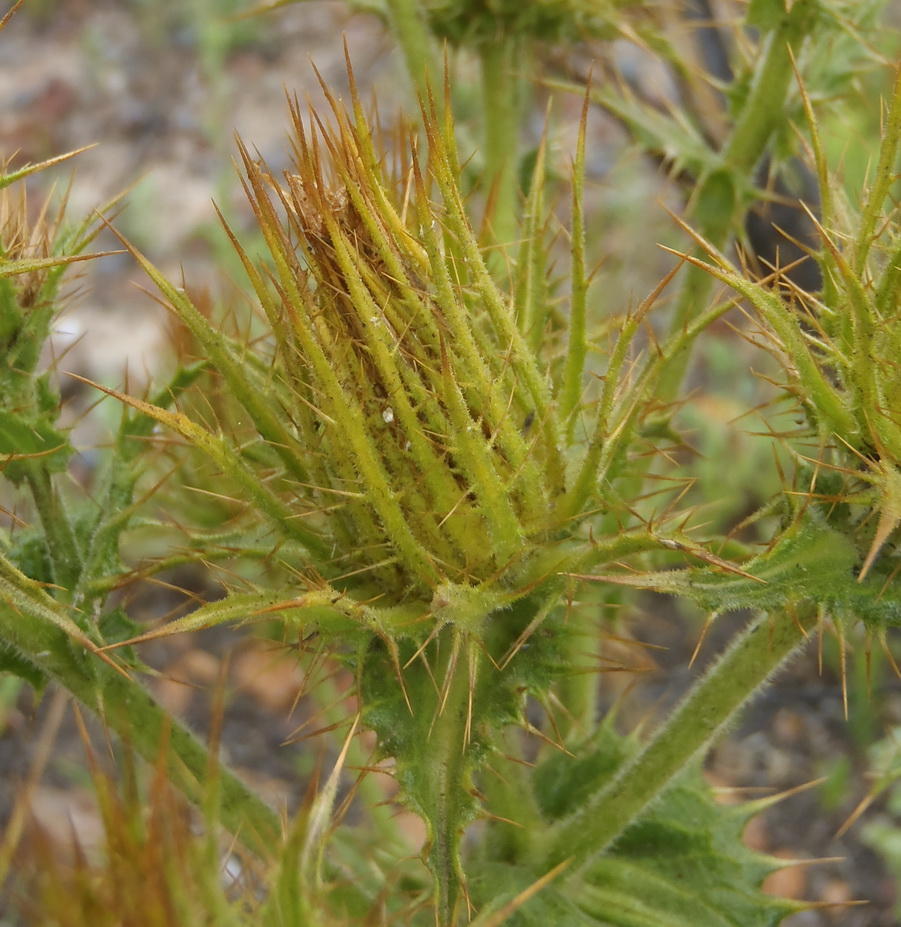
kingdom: Plantae
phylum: Tracheophyta
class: Magnoliopsida
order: Asterales
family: Asteraceae
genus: Berkheya
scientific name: Berkheya carlinoides
